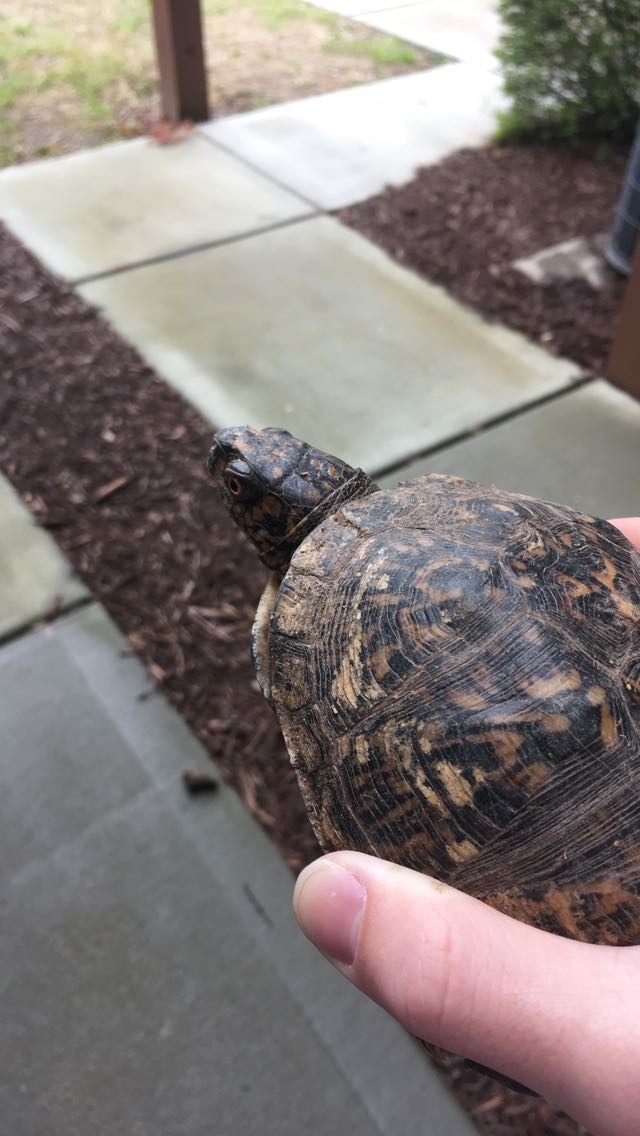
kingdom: Animalia
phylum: Chordata
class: Testudines
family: Emydidae
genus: Terrapene
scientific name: Terrapene carolina
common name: Common box turtle
